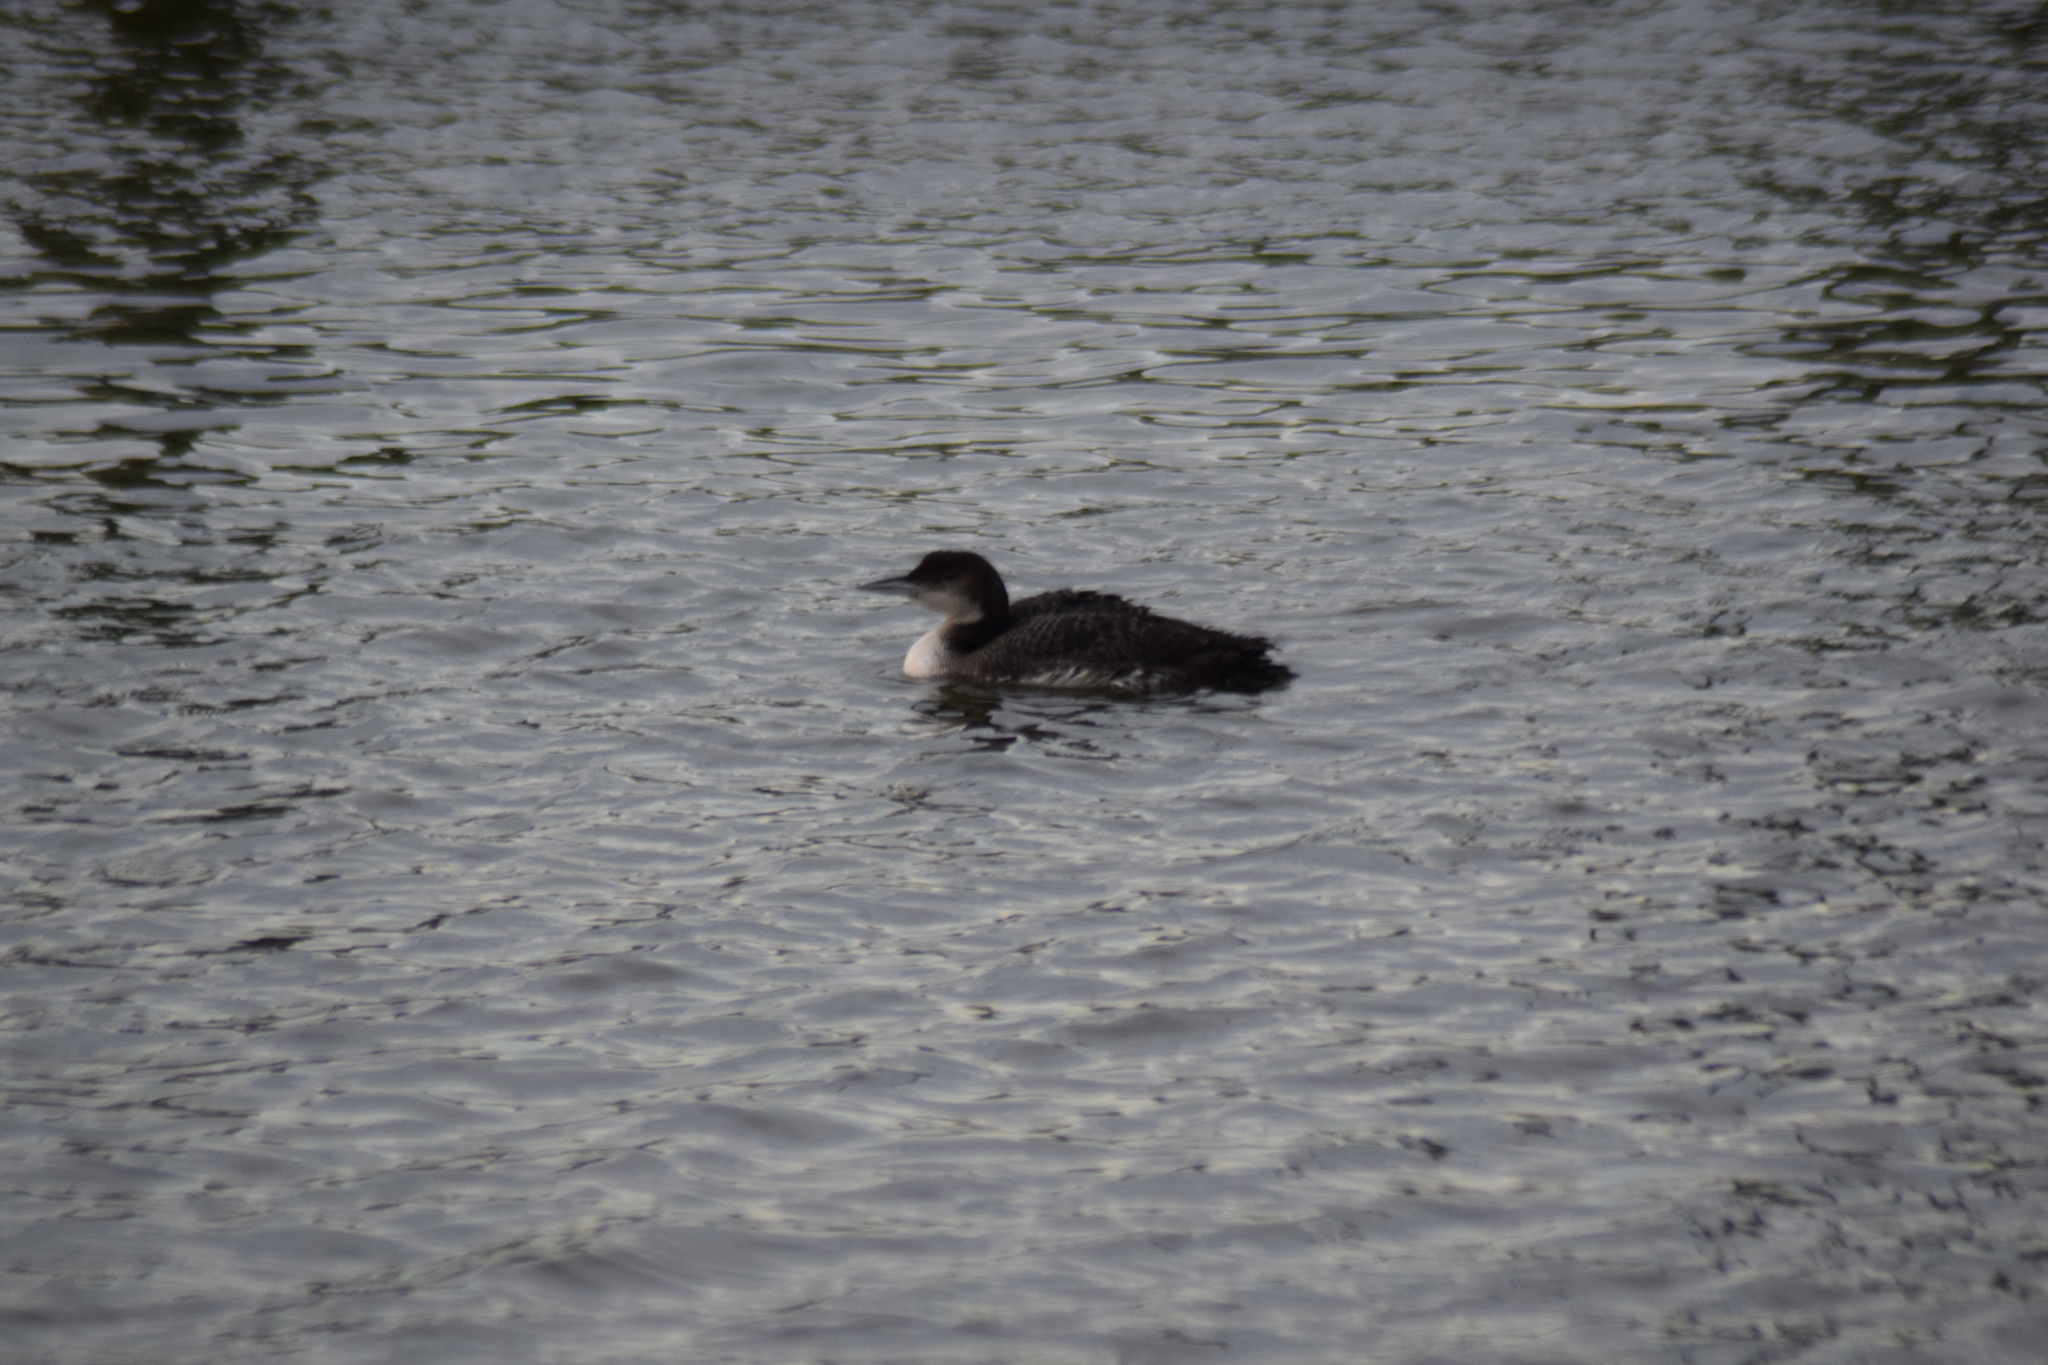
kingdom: Animalia
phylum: Chordata
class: Aves
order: Gaviiformes
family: Gaviidae
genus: Gavia
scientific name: Gavia immer
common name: Common loon
